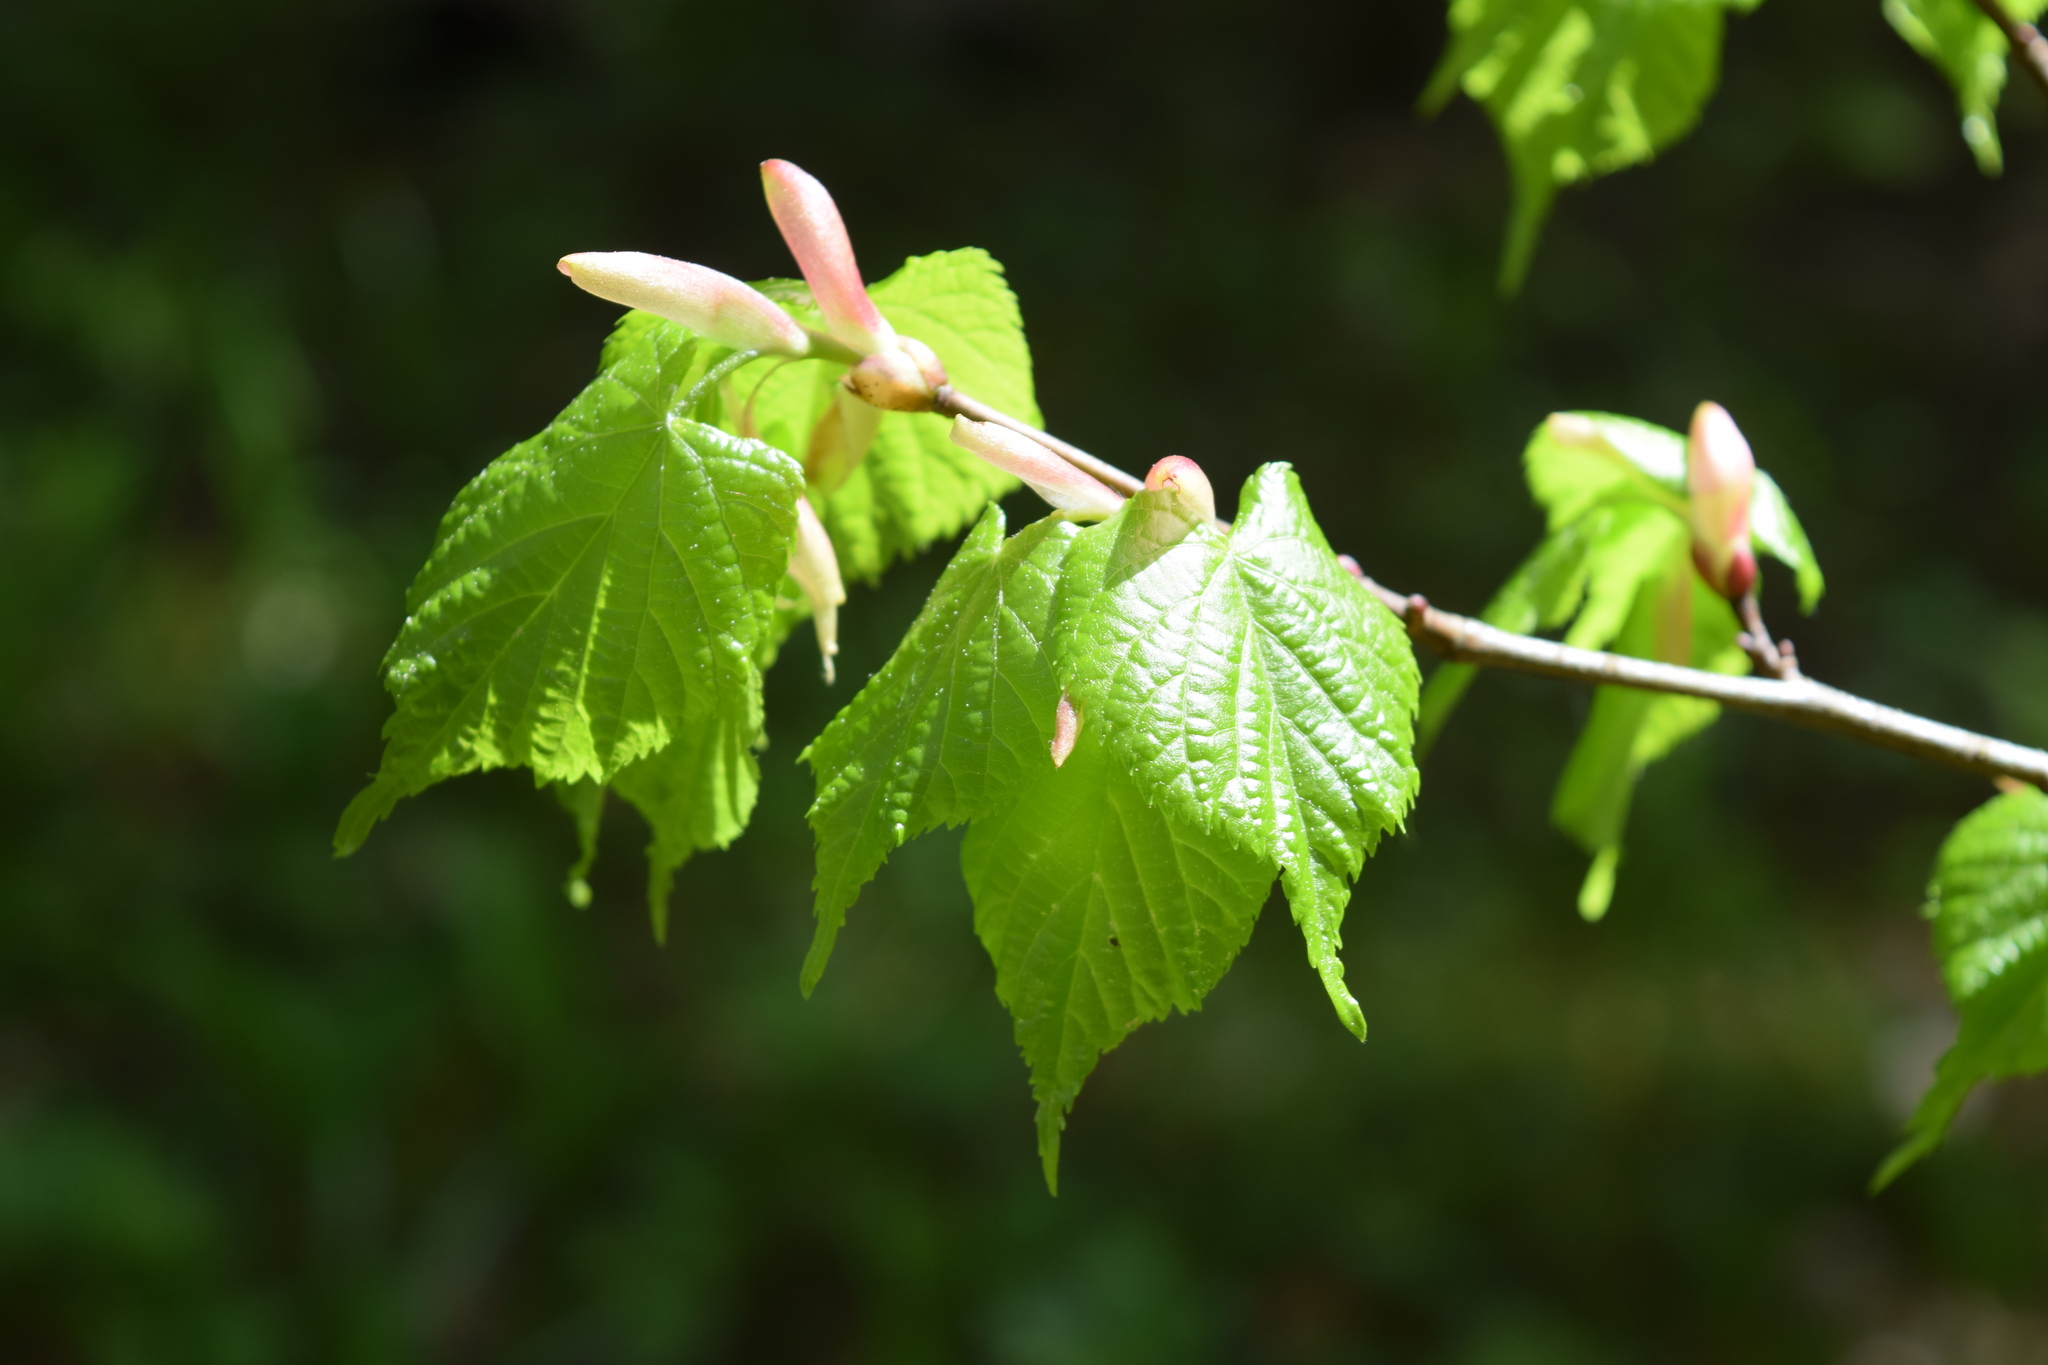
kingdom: Plantae
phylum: Tracheophyta
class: Magnoliopsida
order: Malvales
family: Malvaceae
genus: Tilia
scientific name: Tilia cordata
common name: Small-leaved lime
